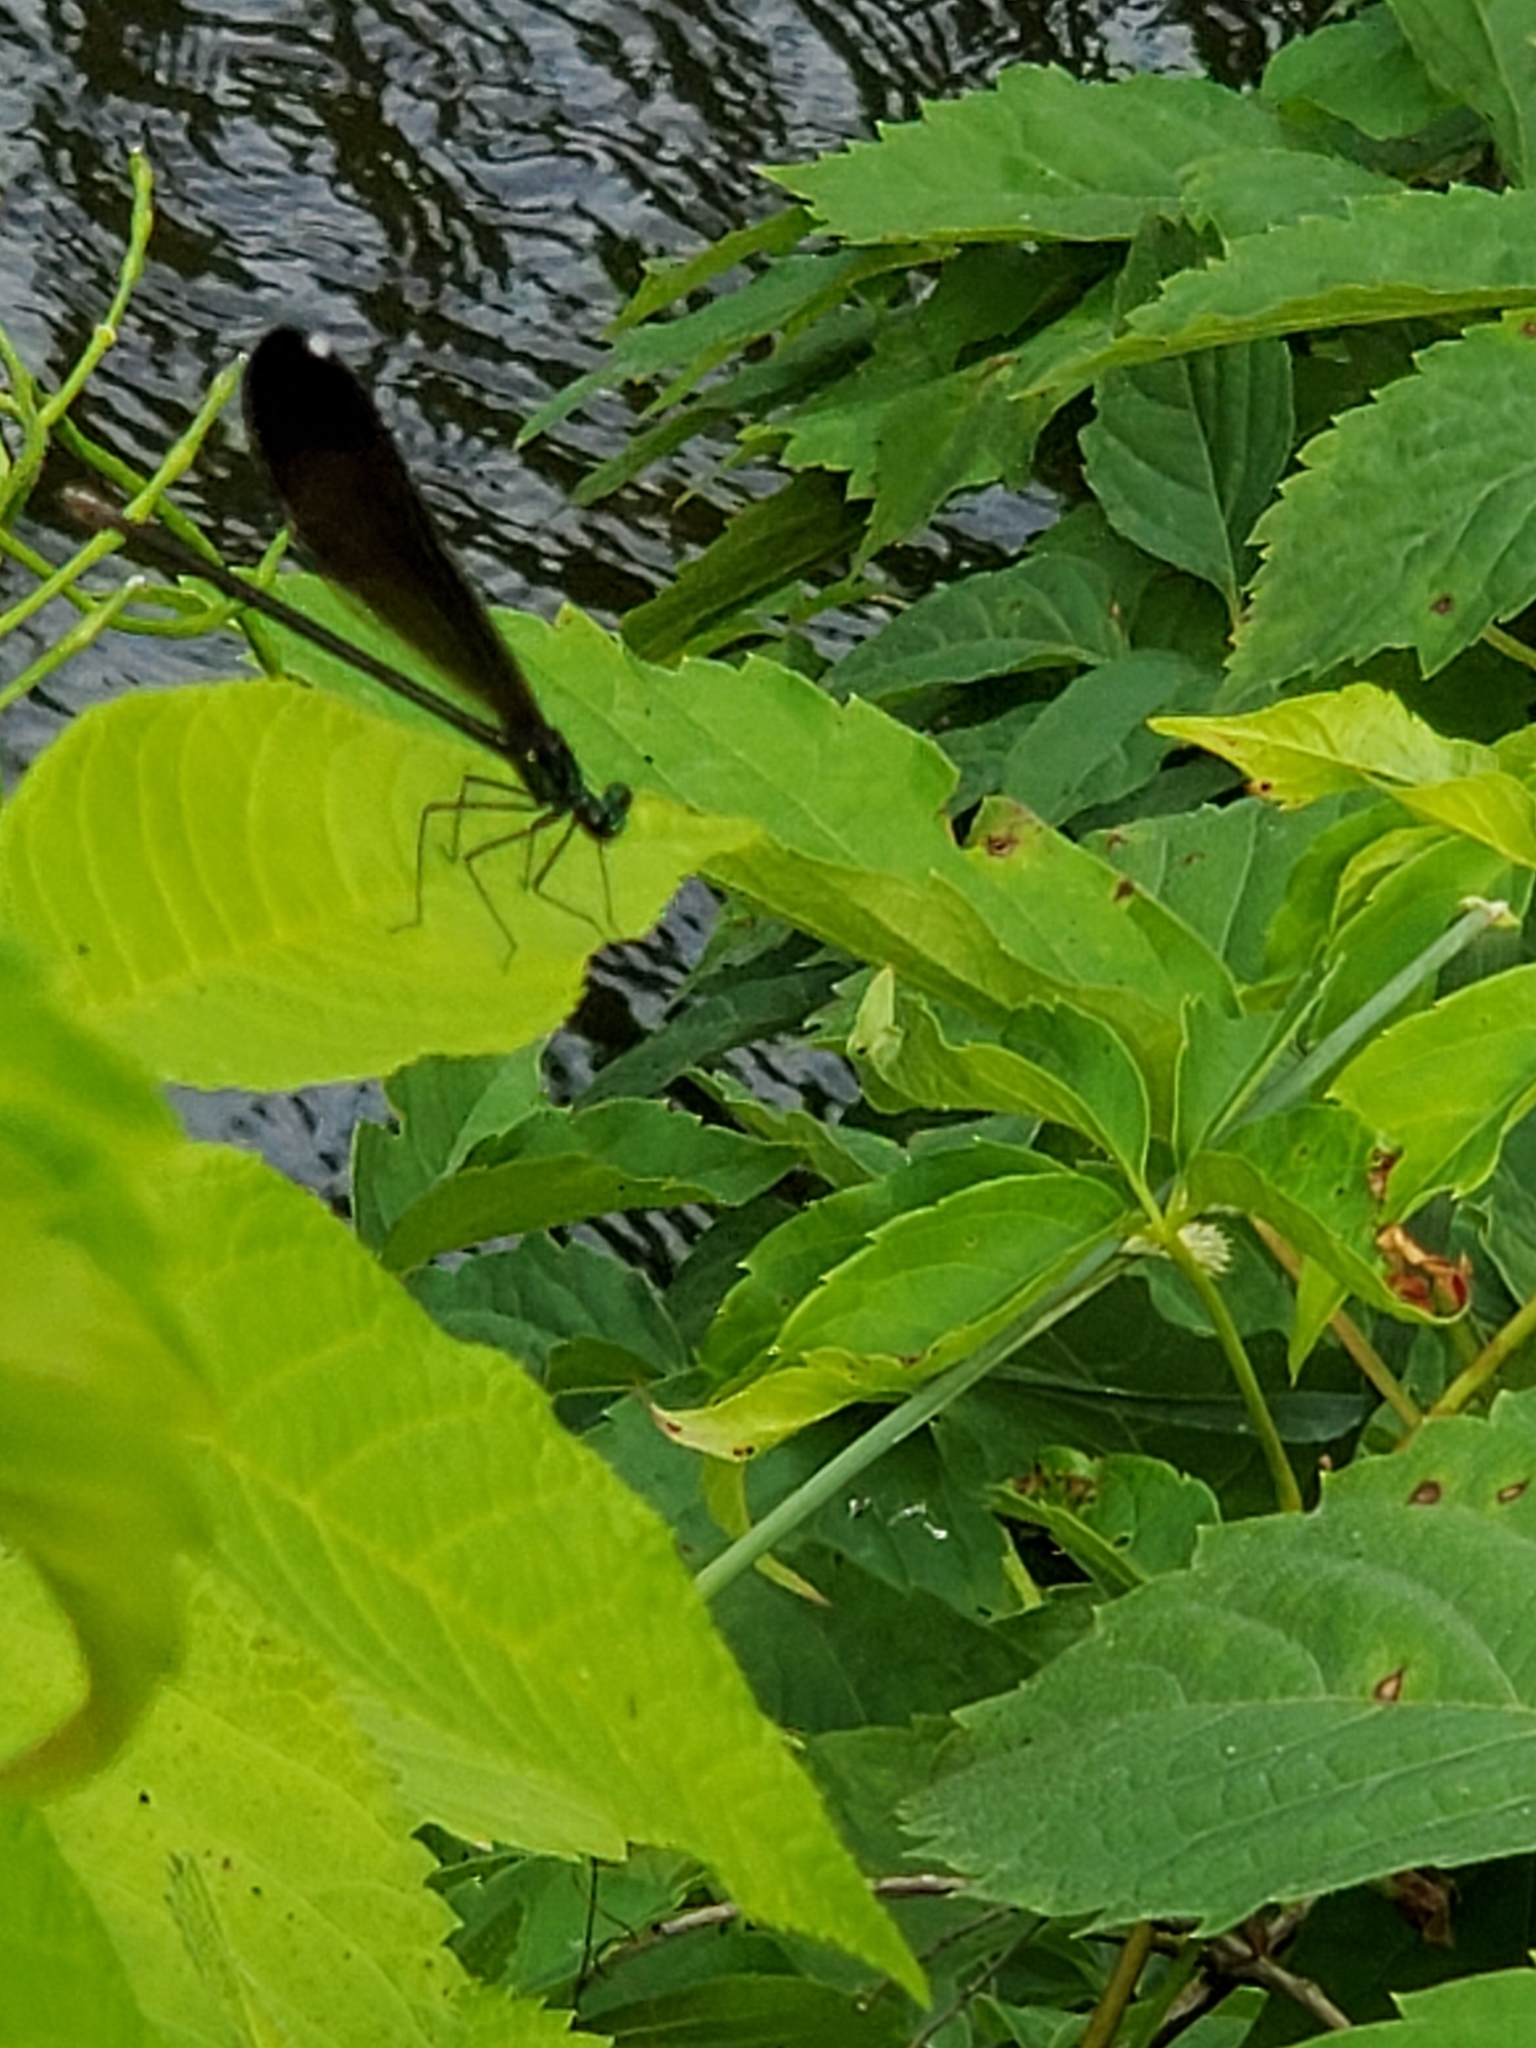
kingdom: Animalia
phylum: Arthropoda
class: Insecta
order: Odonata
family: Calopterygidae
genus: Calopteryx
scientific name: Calopteryx maculata
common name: Ebony jewelwing
